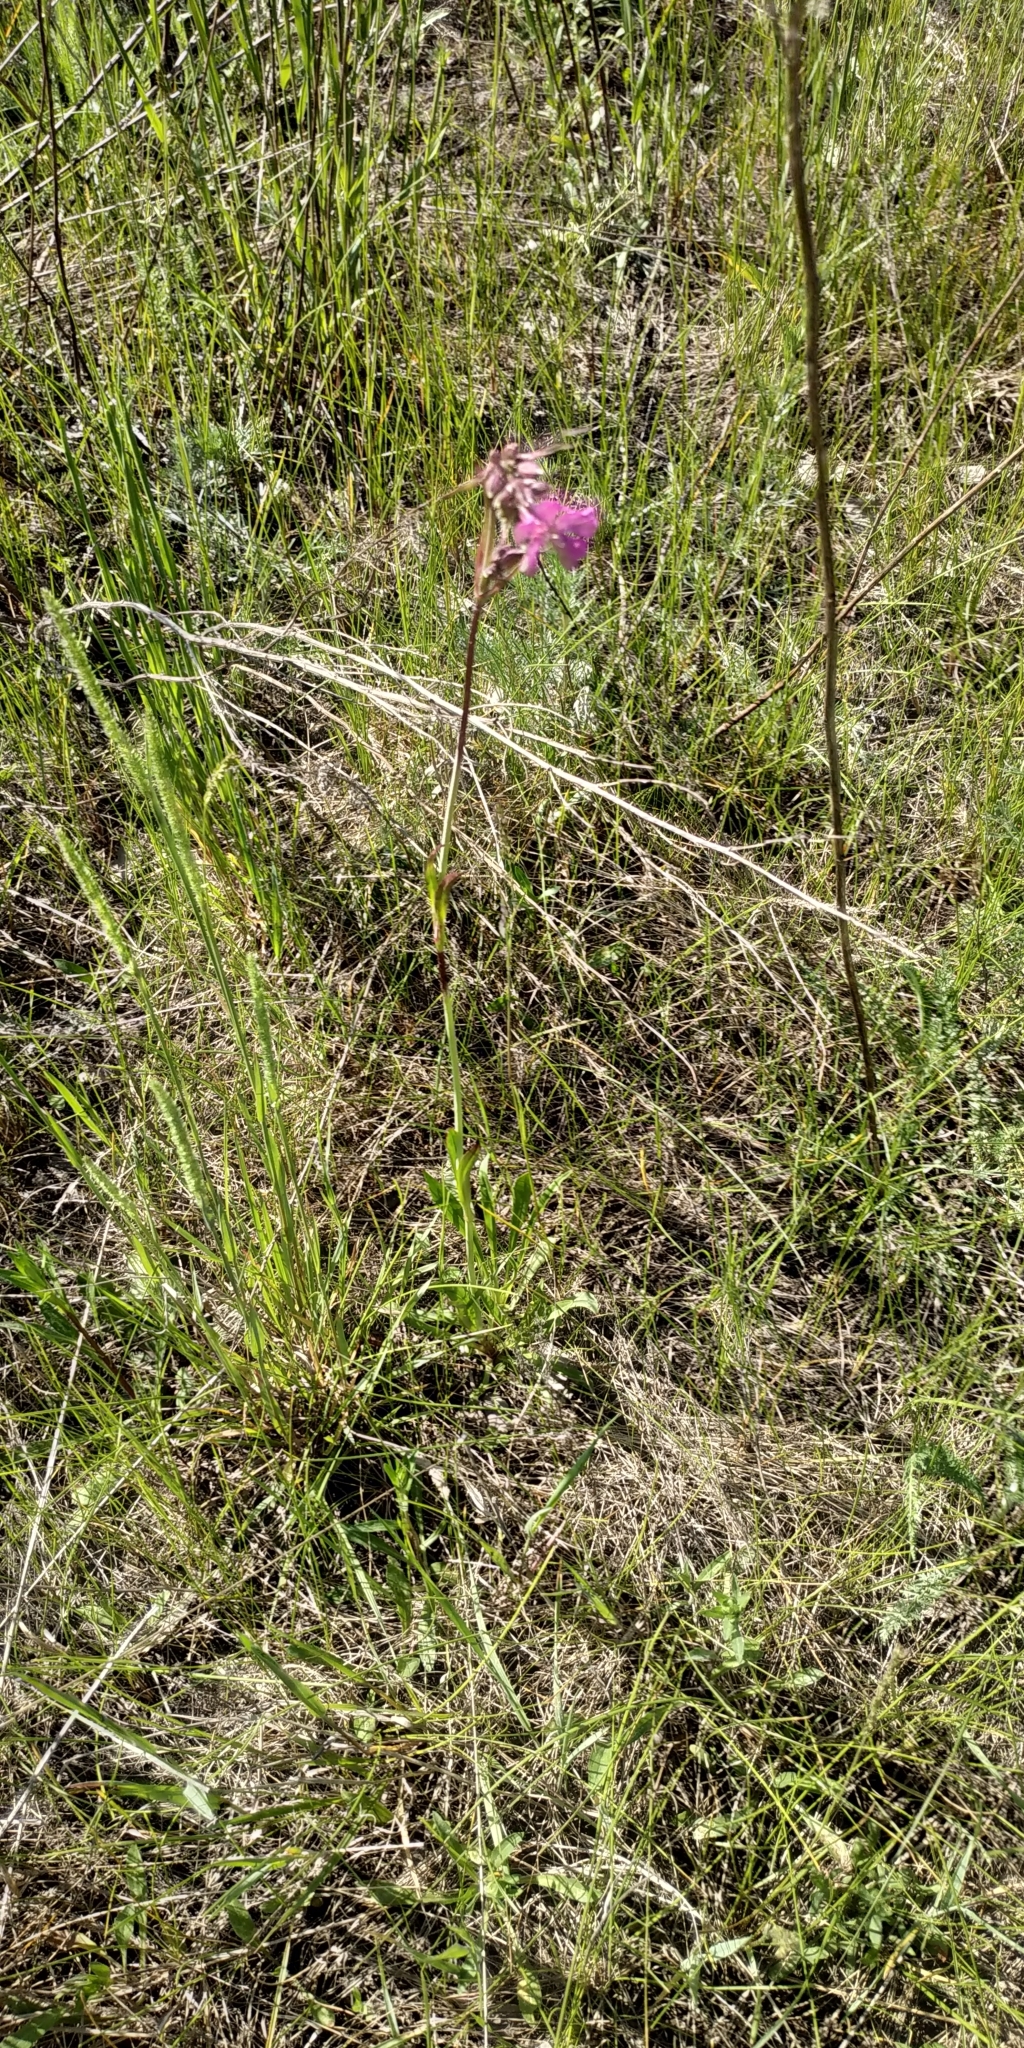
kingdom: Plantae
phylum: Tracheophyta
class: Magnoliopsida
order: Caryophyllales
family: Caryophyllaceae
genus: Viscaria
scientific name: Viscaria vulgaris
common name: Clammy campion
